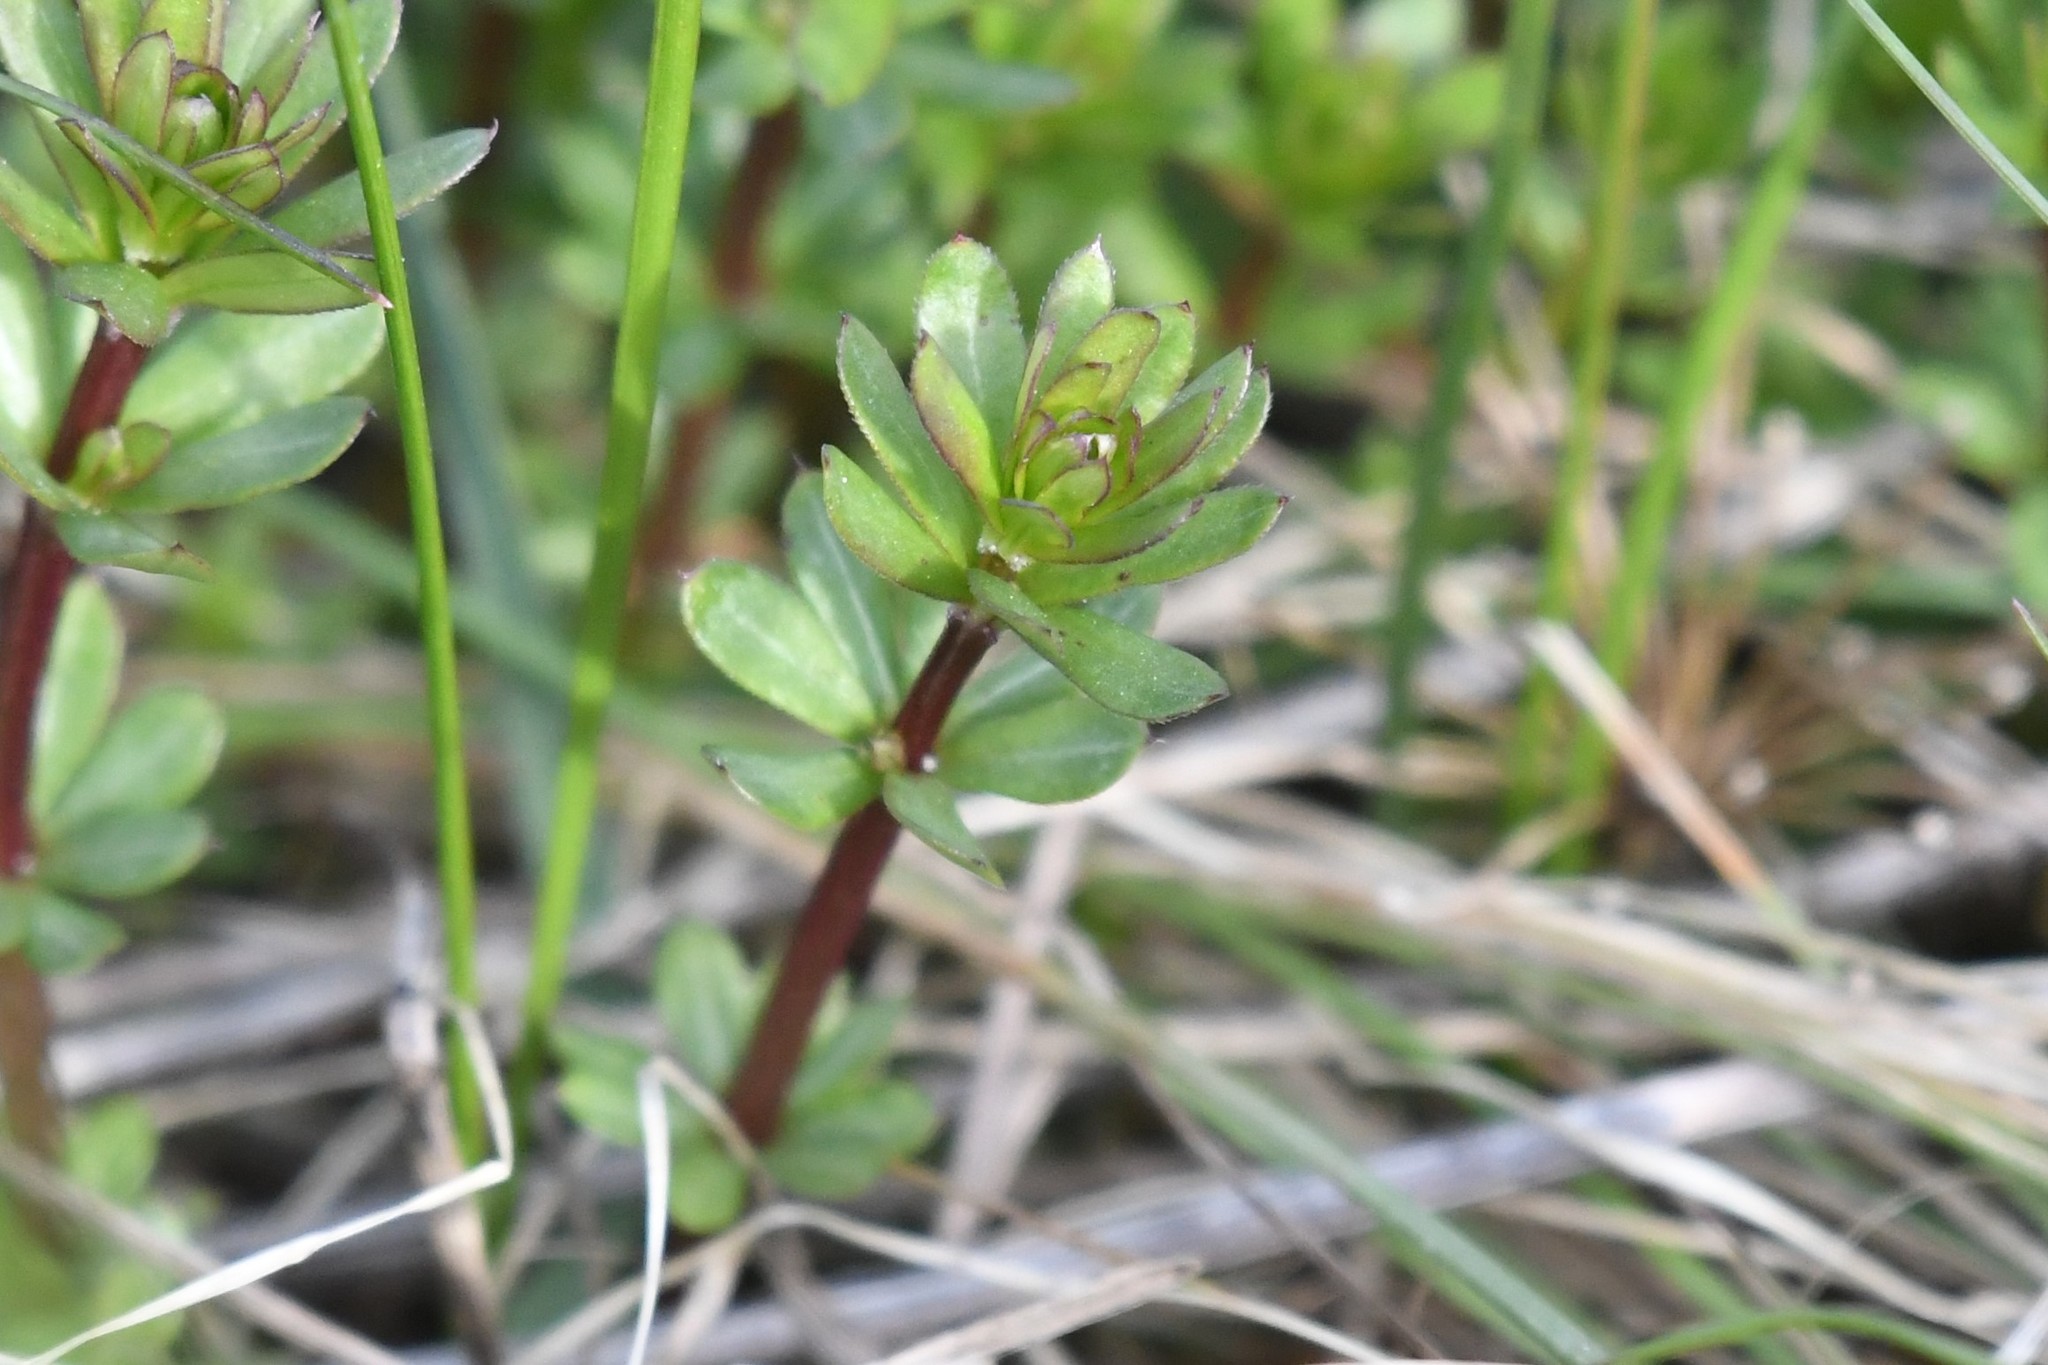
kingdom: Plantae
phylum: Tracheophyta
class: Magnoliopsida
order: Gentianales
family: Rubiaceae
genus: Galium
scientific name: Galium mollugo
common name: Hedge bedstraw
